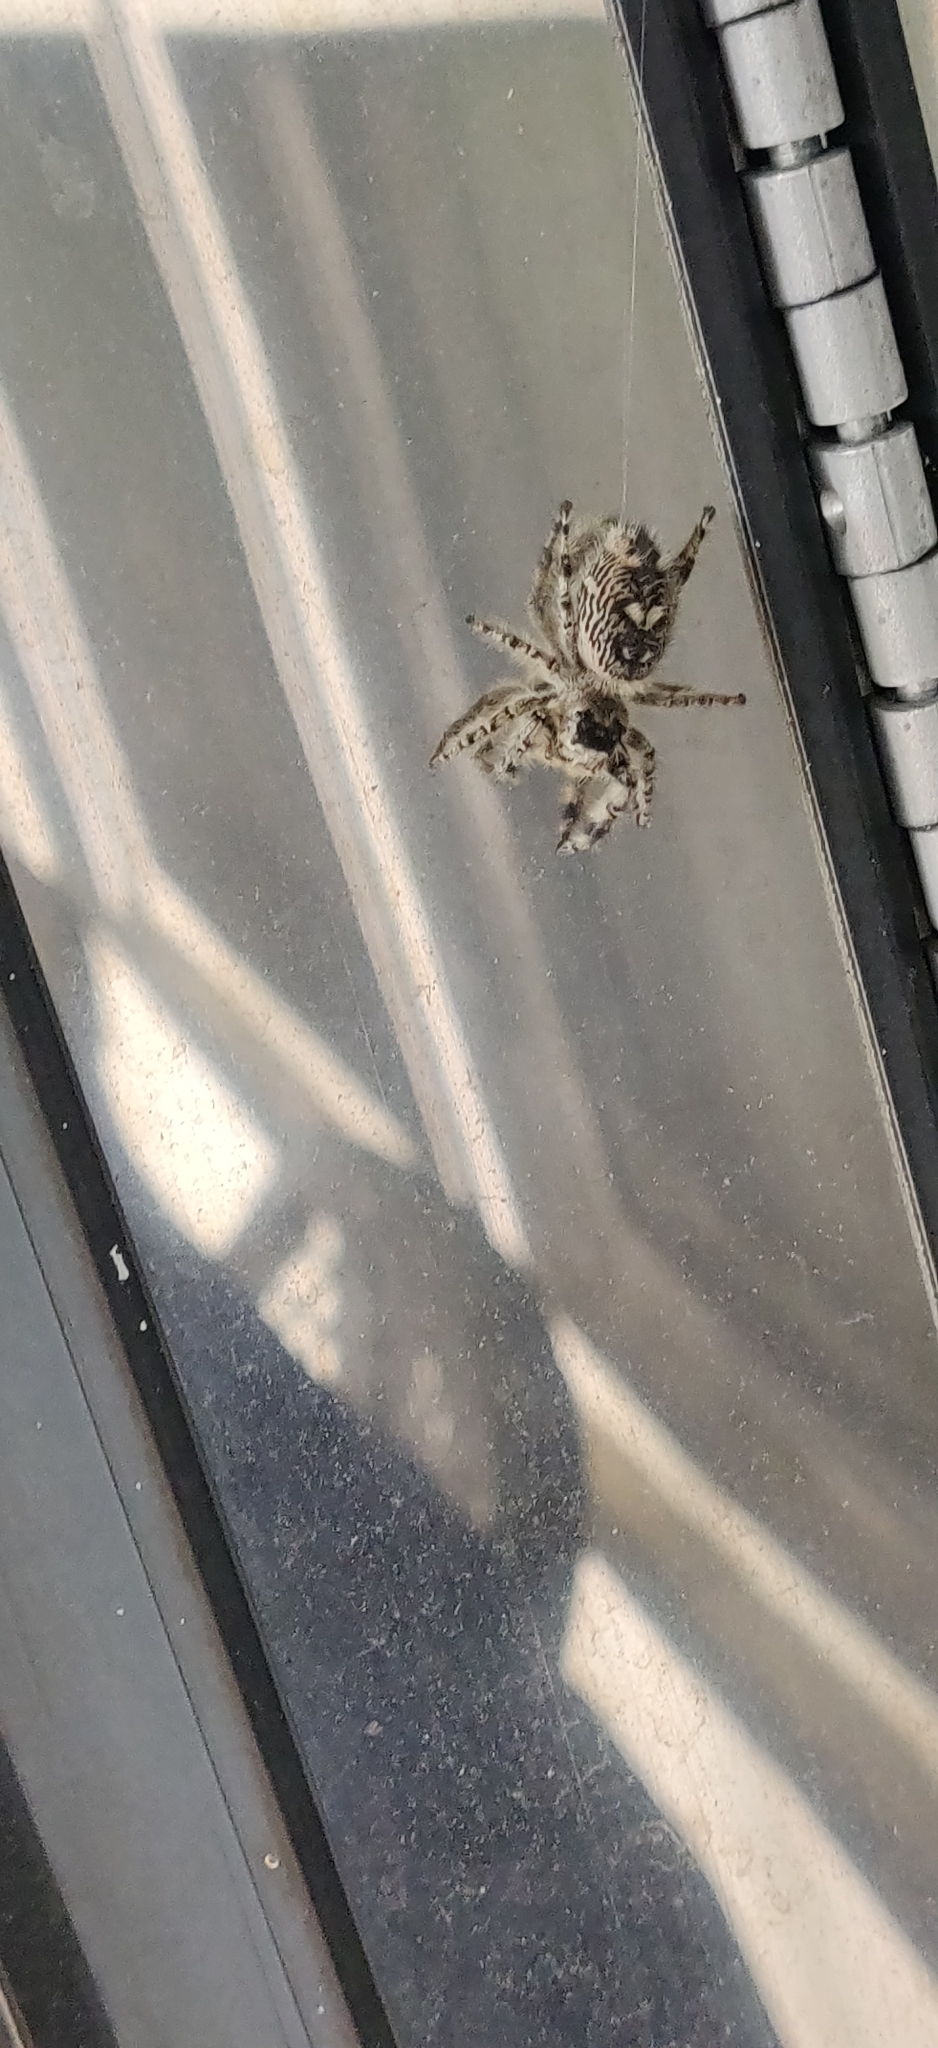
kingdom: Animalia
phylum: Arthropoda
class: Arachnida
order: Araneae
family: Salticidae
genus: Phidippus
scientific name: Phidippus otiosus
